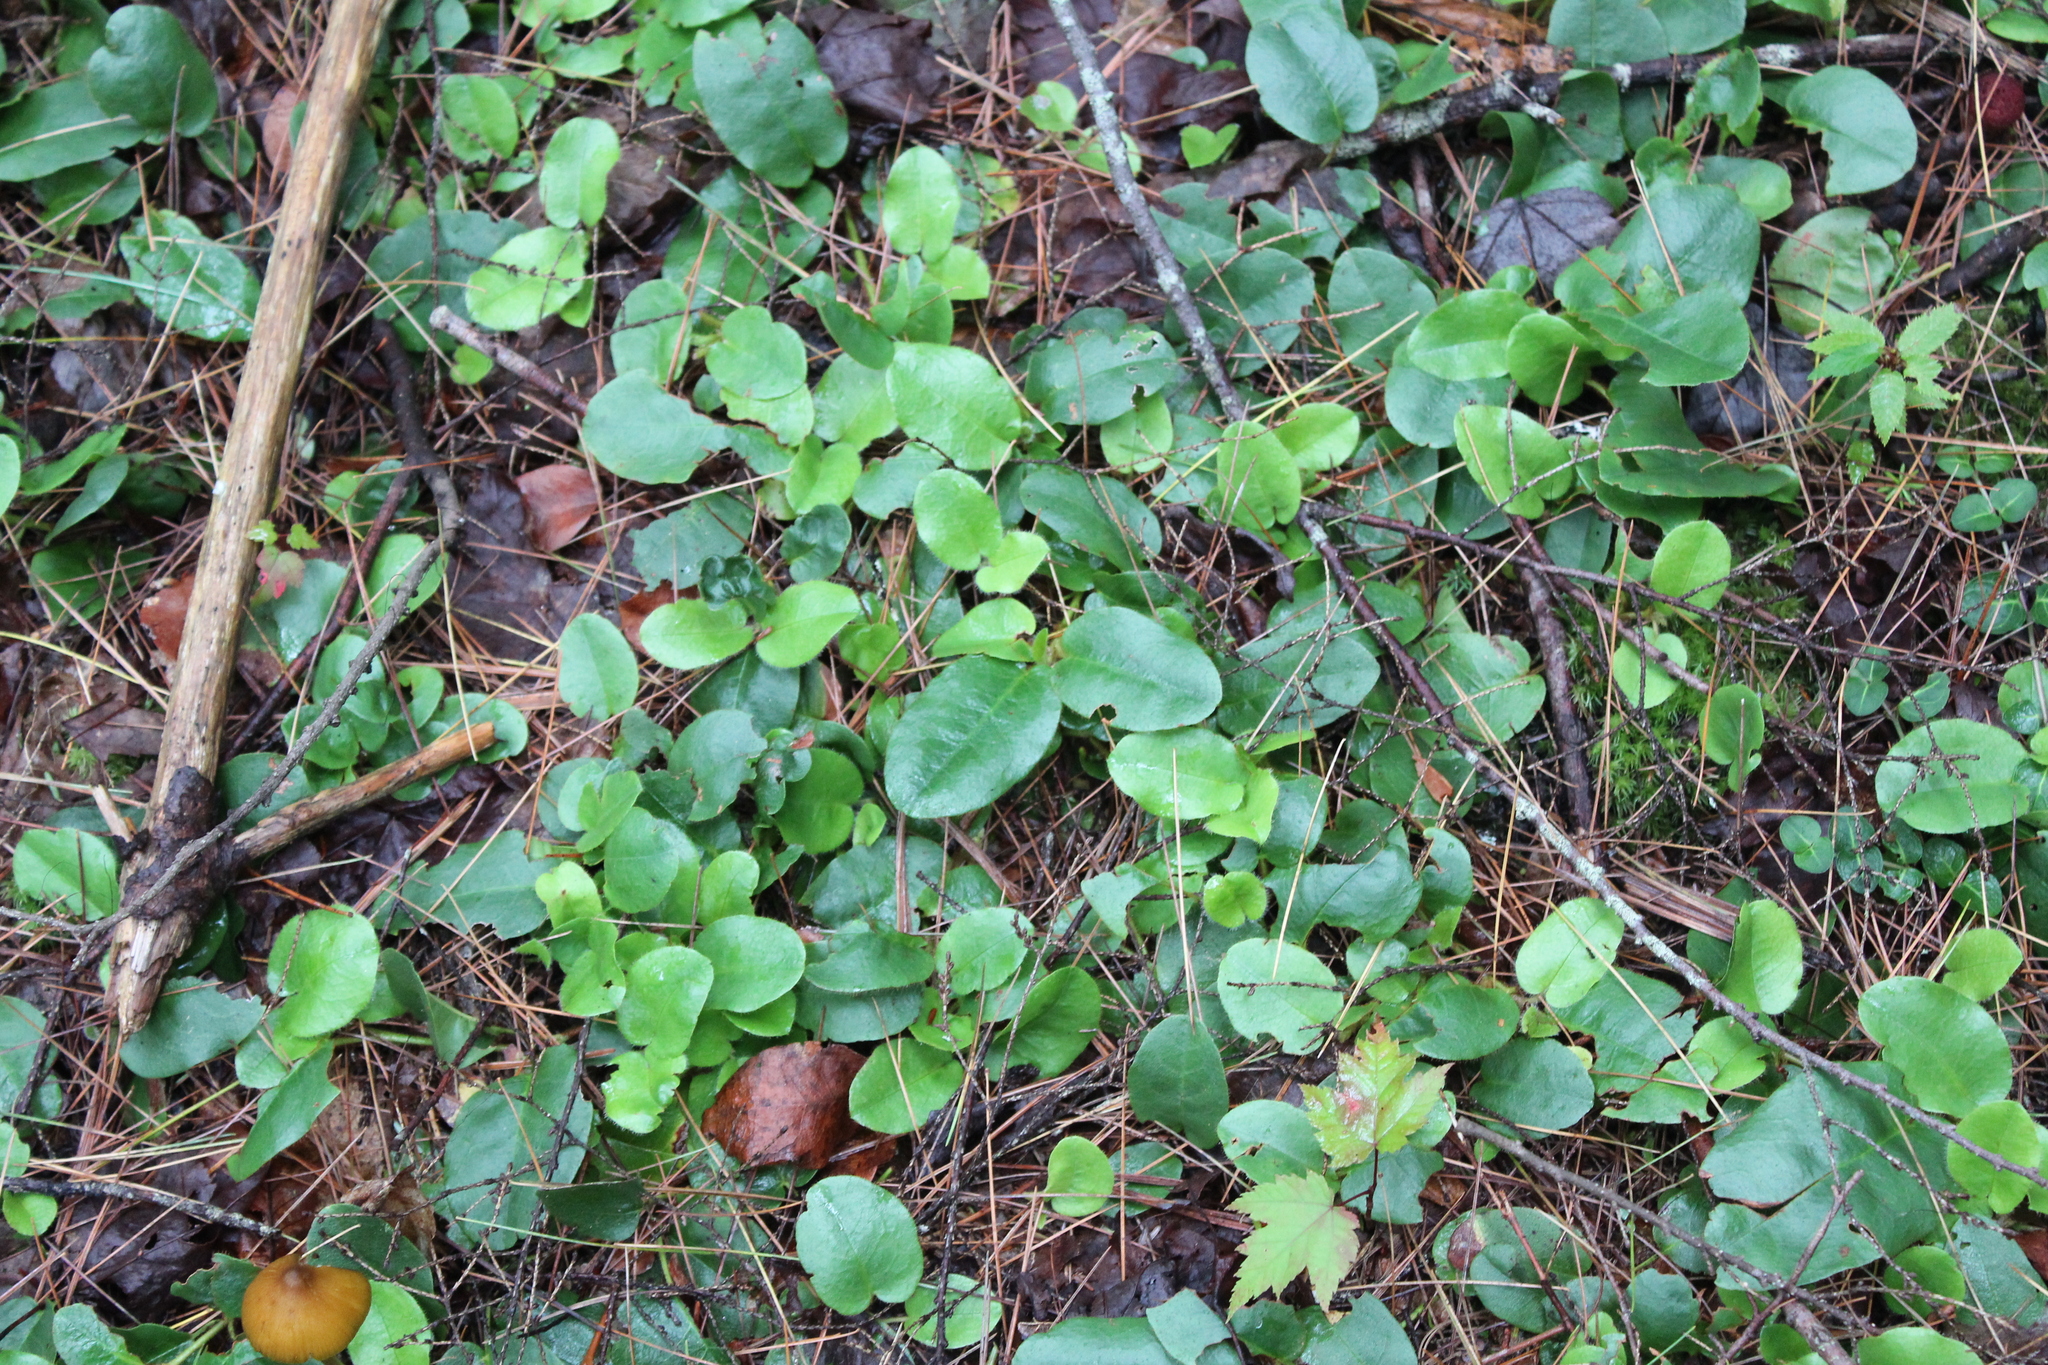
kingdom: Plantae
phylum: Tracheophyta
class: Magnoliopsida
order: Ericales
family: Ericaceae
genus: Epigaea
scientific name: Epigaea repens
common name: Gravelroot
